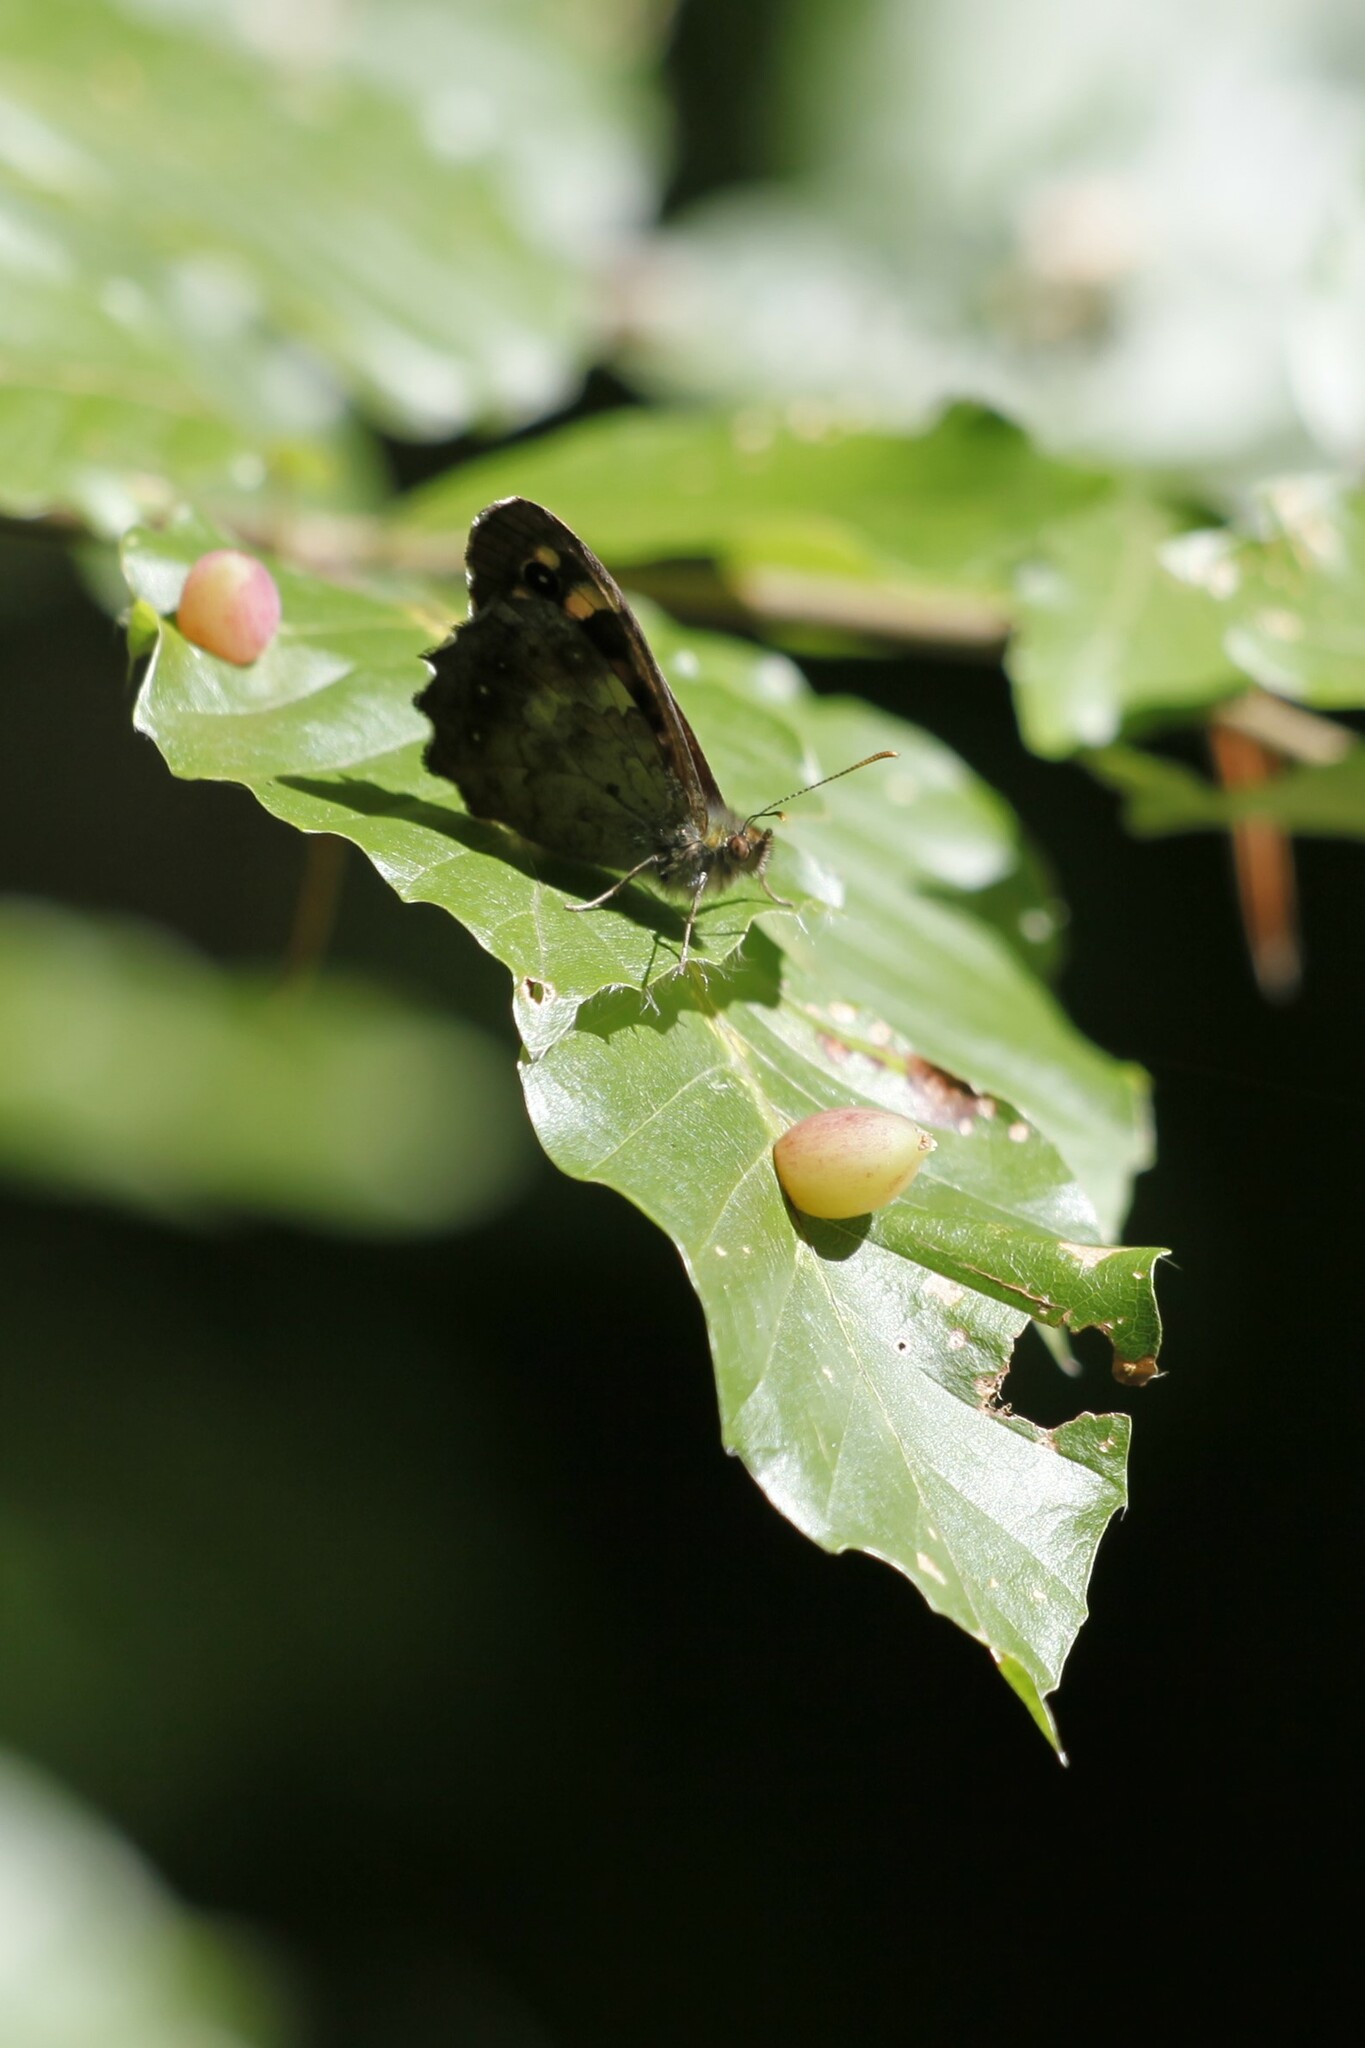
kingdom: Animalia
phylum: Arthropoda
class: Insecta
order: Diptera
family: Cecidomyiidae
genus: Mikiola
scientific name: Mikiola fagi
